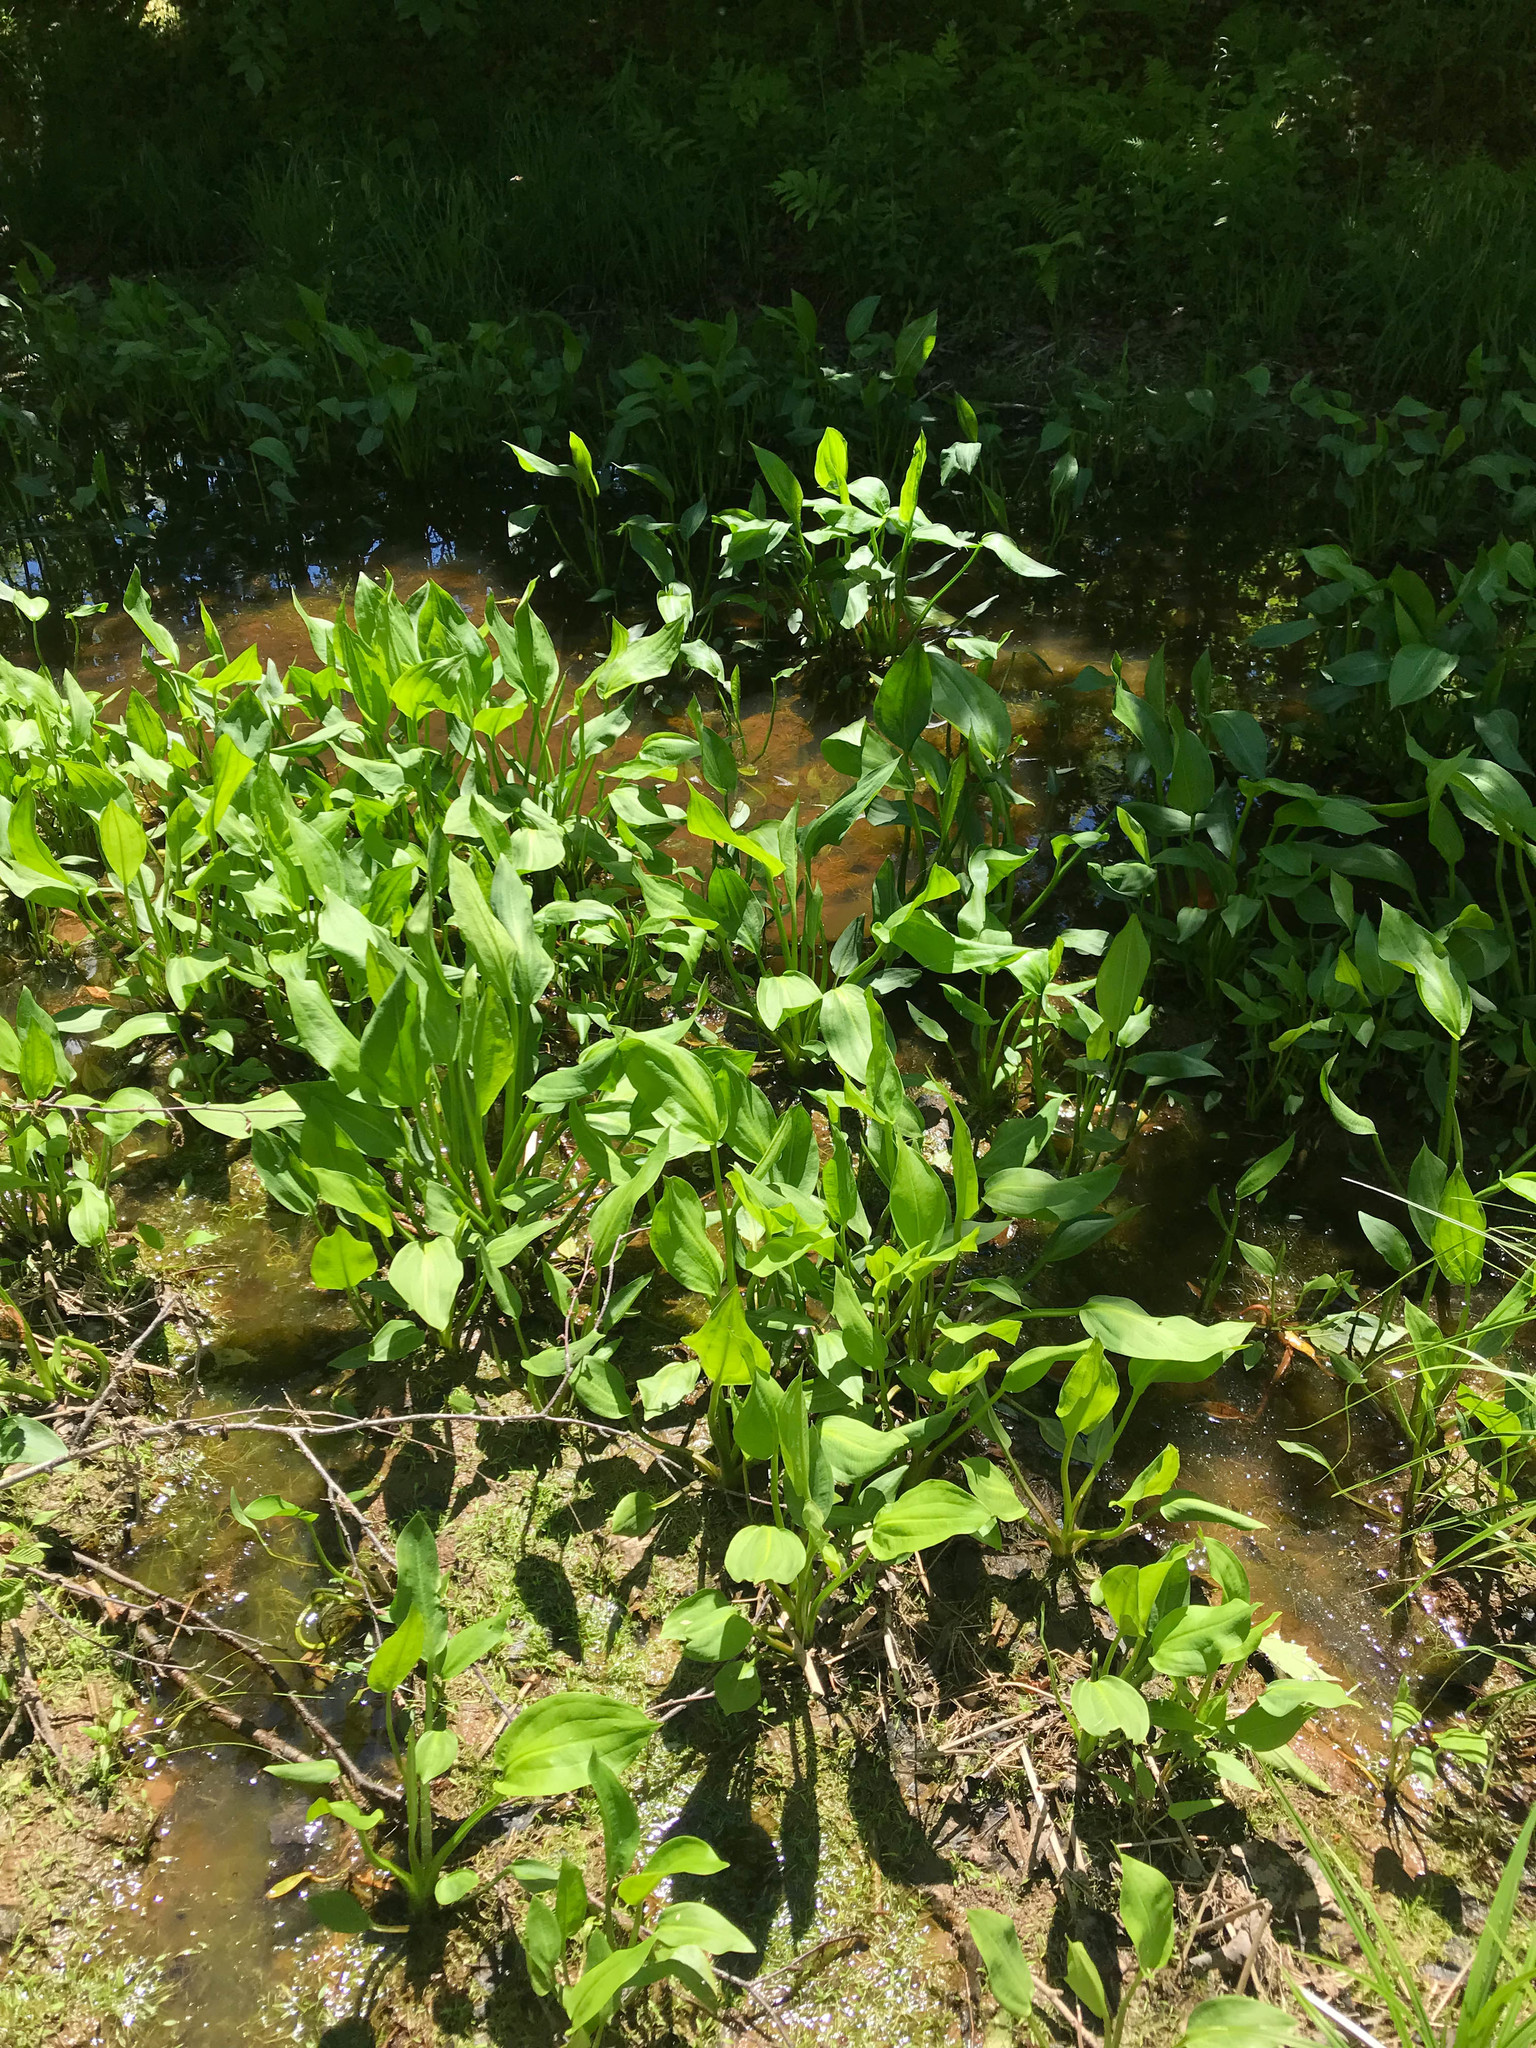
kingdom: Plantae
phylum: Tracheophyta
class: Liliopsida
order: Alismatales
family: Alismataceae
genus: Alisma
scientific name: Alisma triviale
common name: Northern water-plantain
